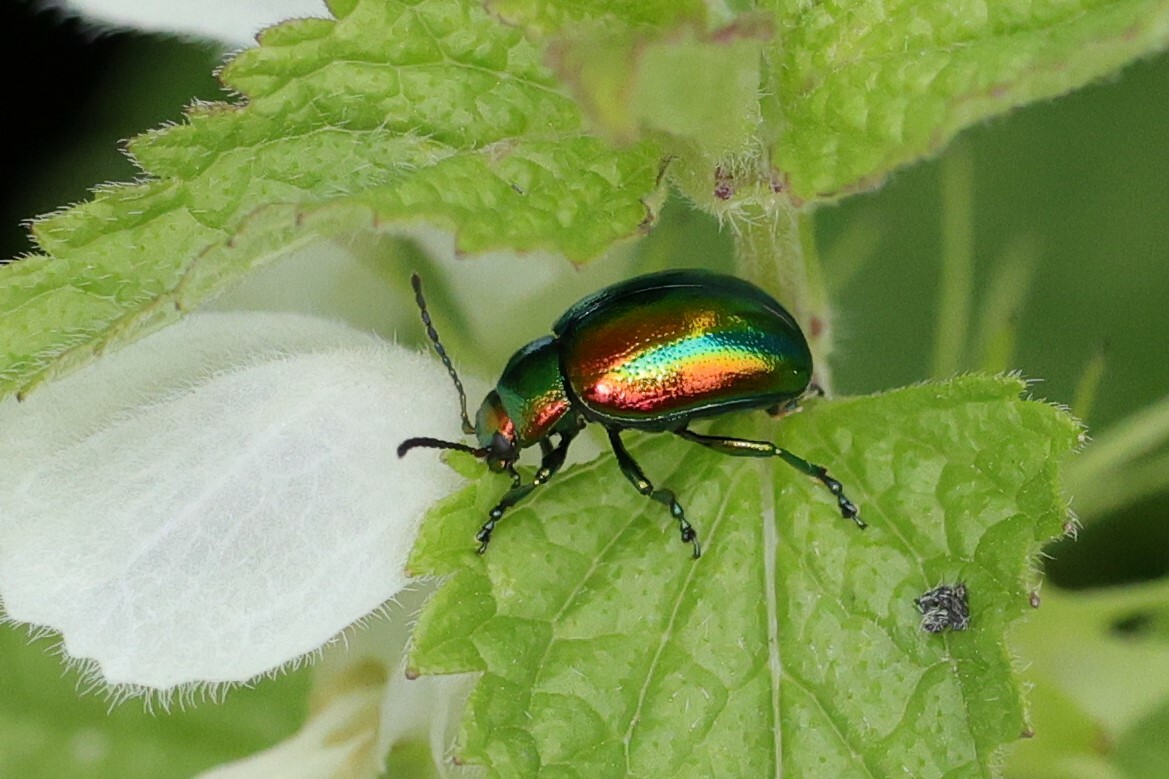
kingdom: Animalia
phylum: Arthropoda
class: Insecta
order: Coleoptera
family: Chrysomelidae
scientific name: Chrysomelidae
